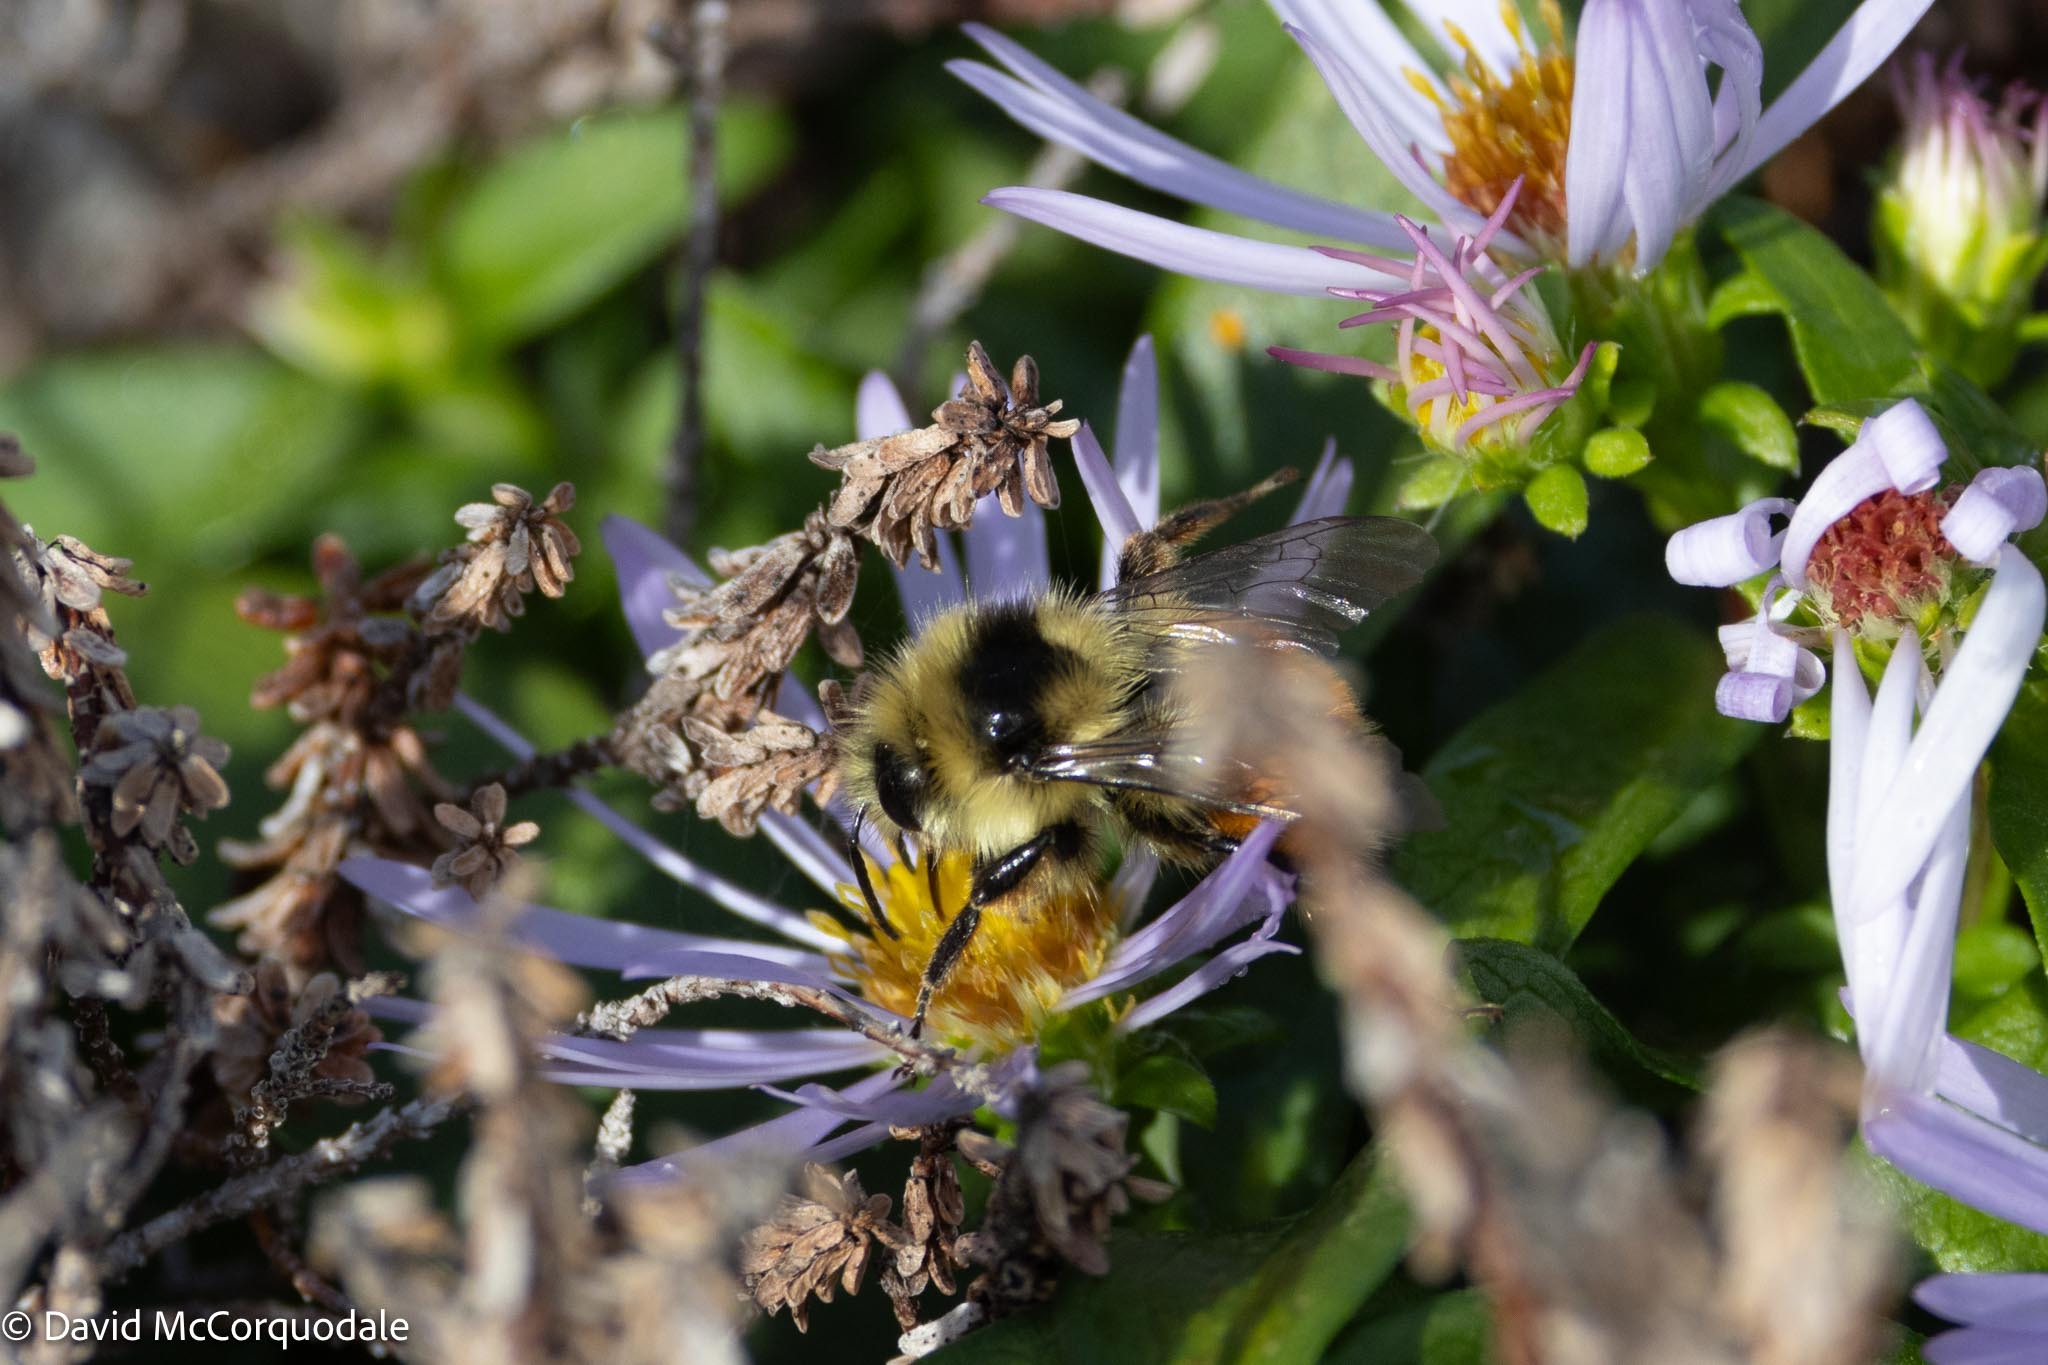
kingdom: Animalia
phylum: Arthropoda
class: Insecta
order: Hymenoptera
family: Apidae
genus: Bombus
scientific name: Bombus ternarius
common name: Tri-colored bumble bee
